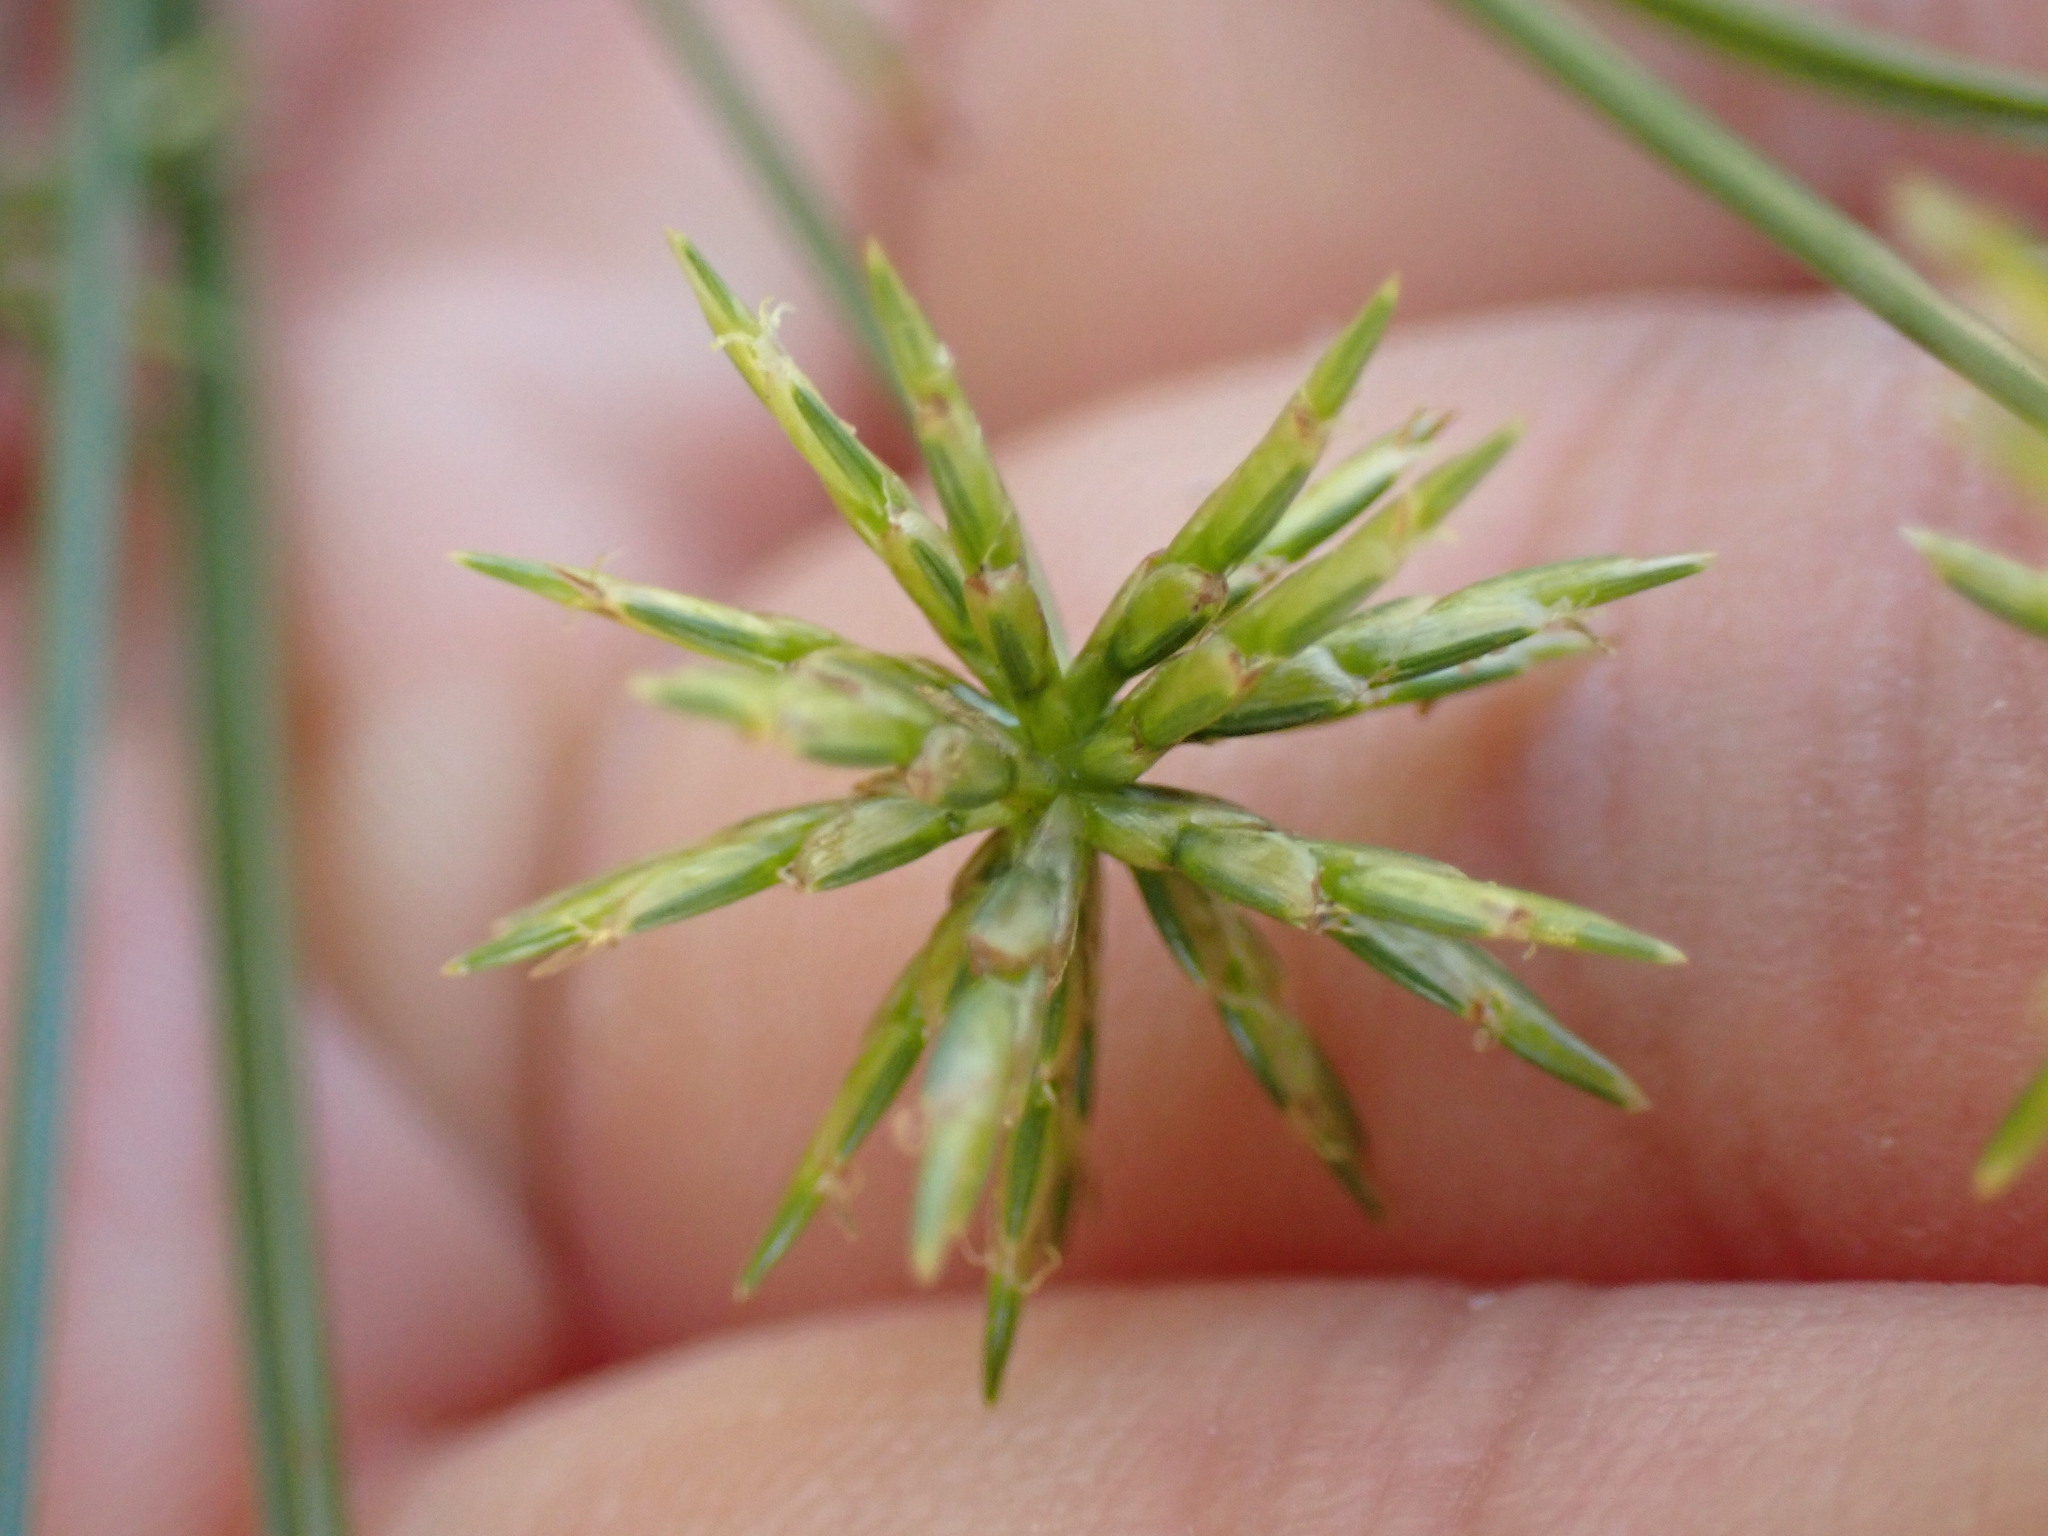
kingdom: Plantae
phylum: Tracheophyta
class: Liliopsida
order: Poales
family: Cyperaceae
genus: Cyperus
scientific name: Cyperus grayi
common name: Gray's flat sedge
